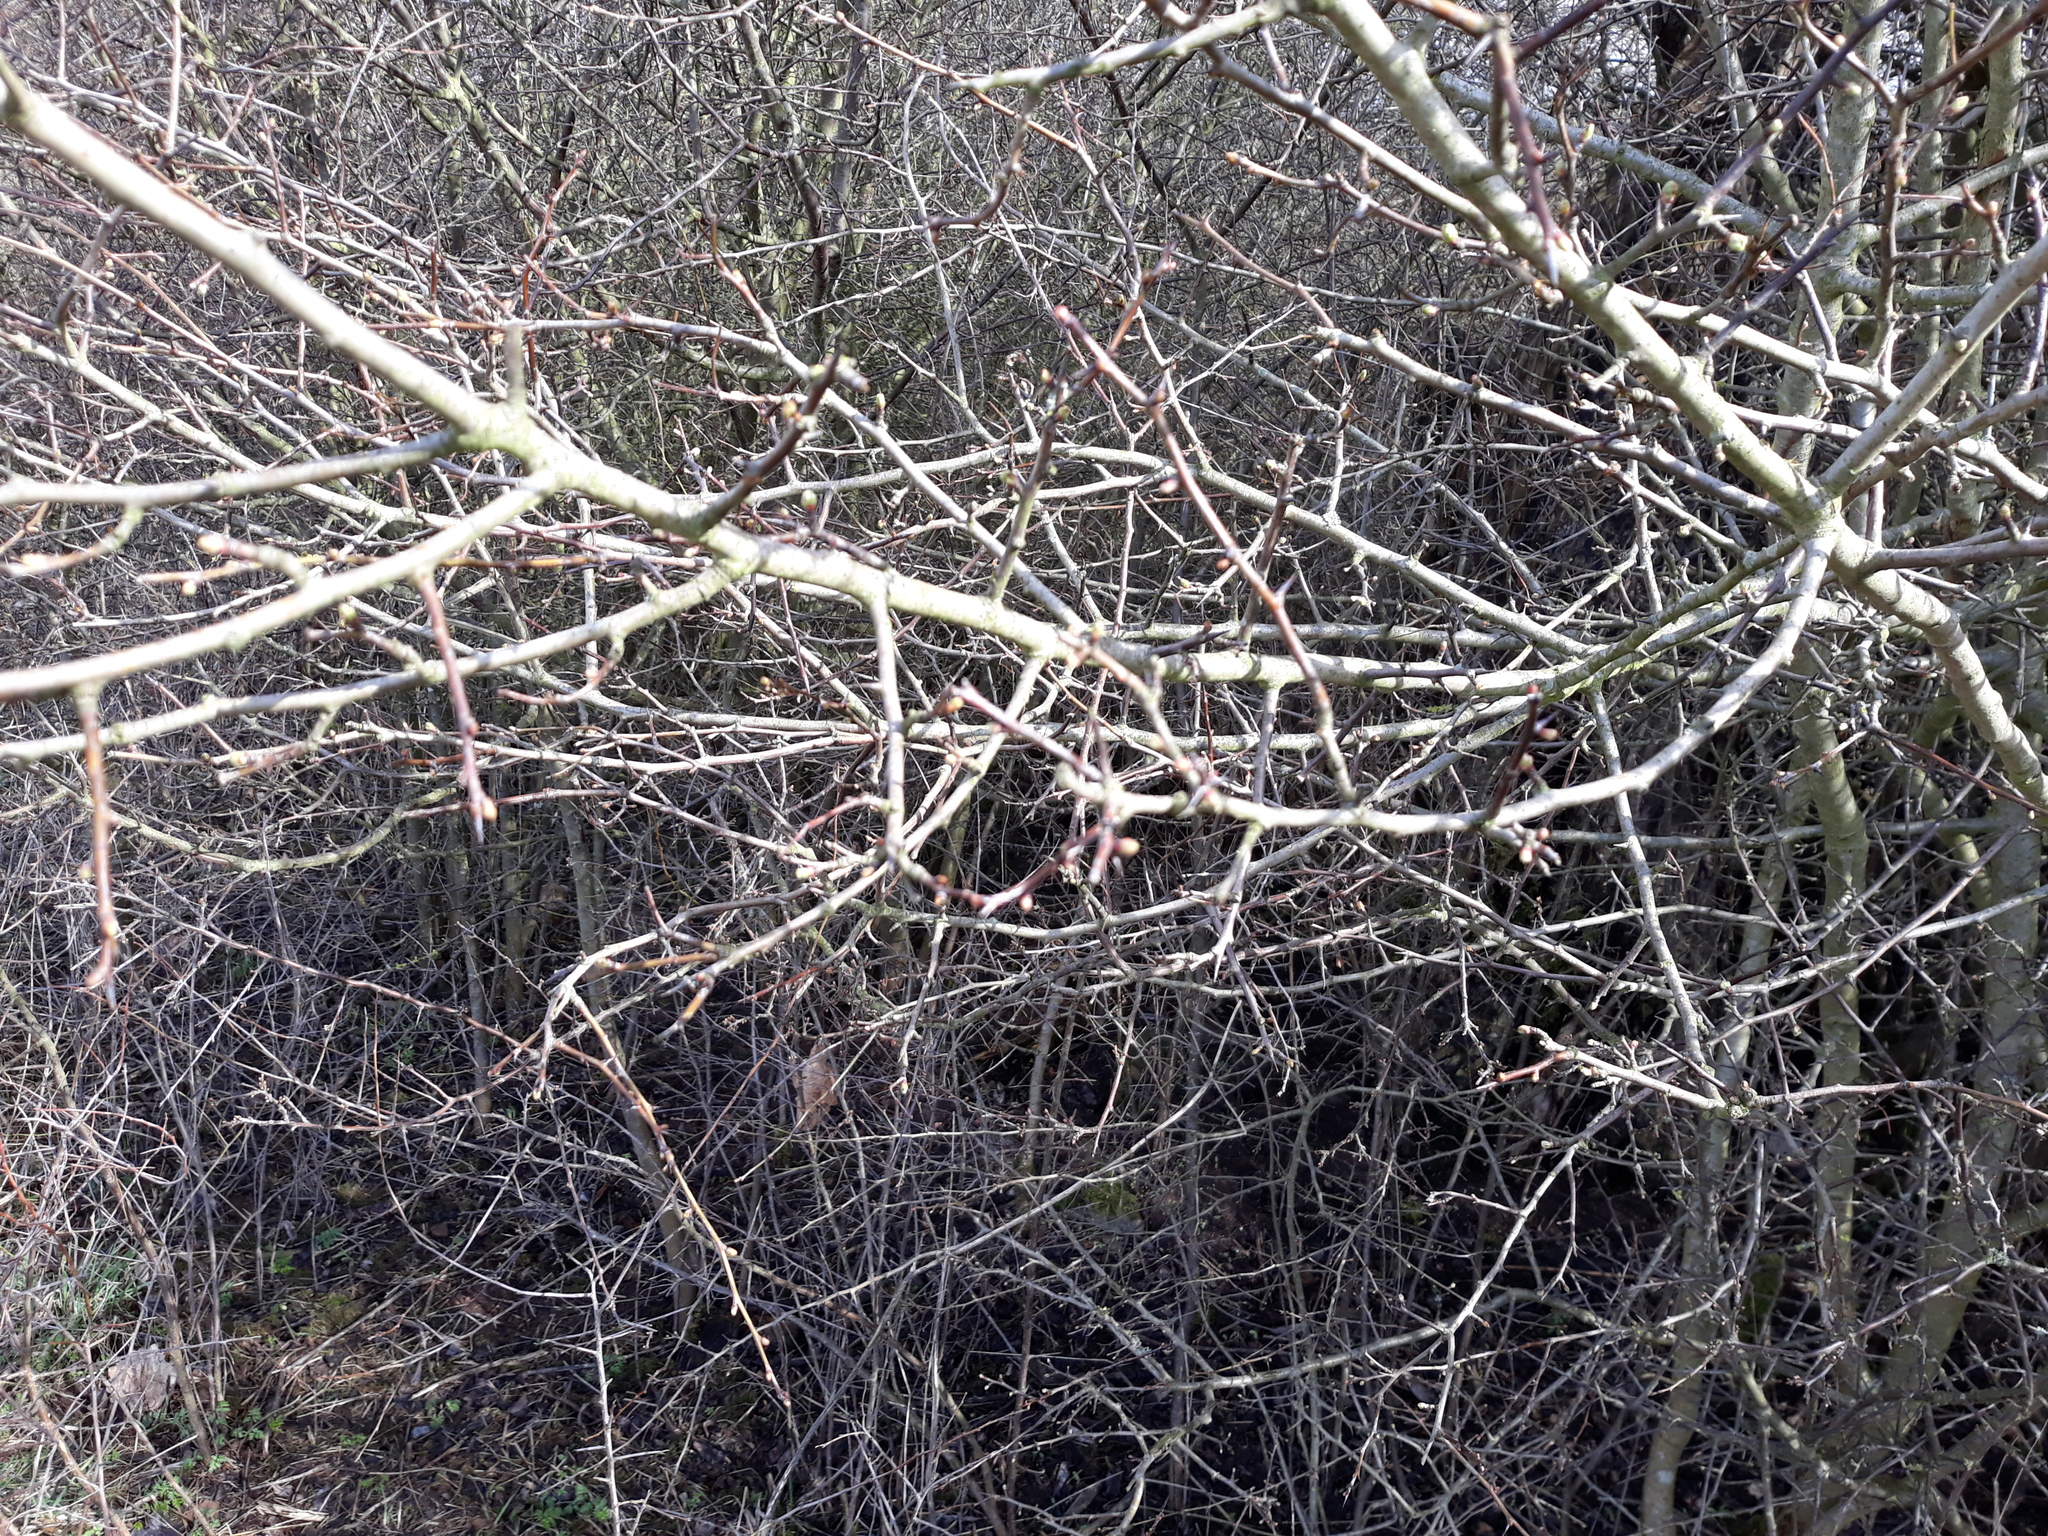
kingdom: Plantae
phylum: Tracheophyta
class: Magnoliopsida
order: Rosales
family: Rosaceae
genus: Prunus
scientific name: Prunus spinosa
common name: Blackthorn
